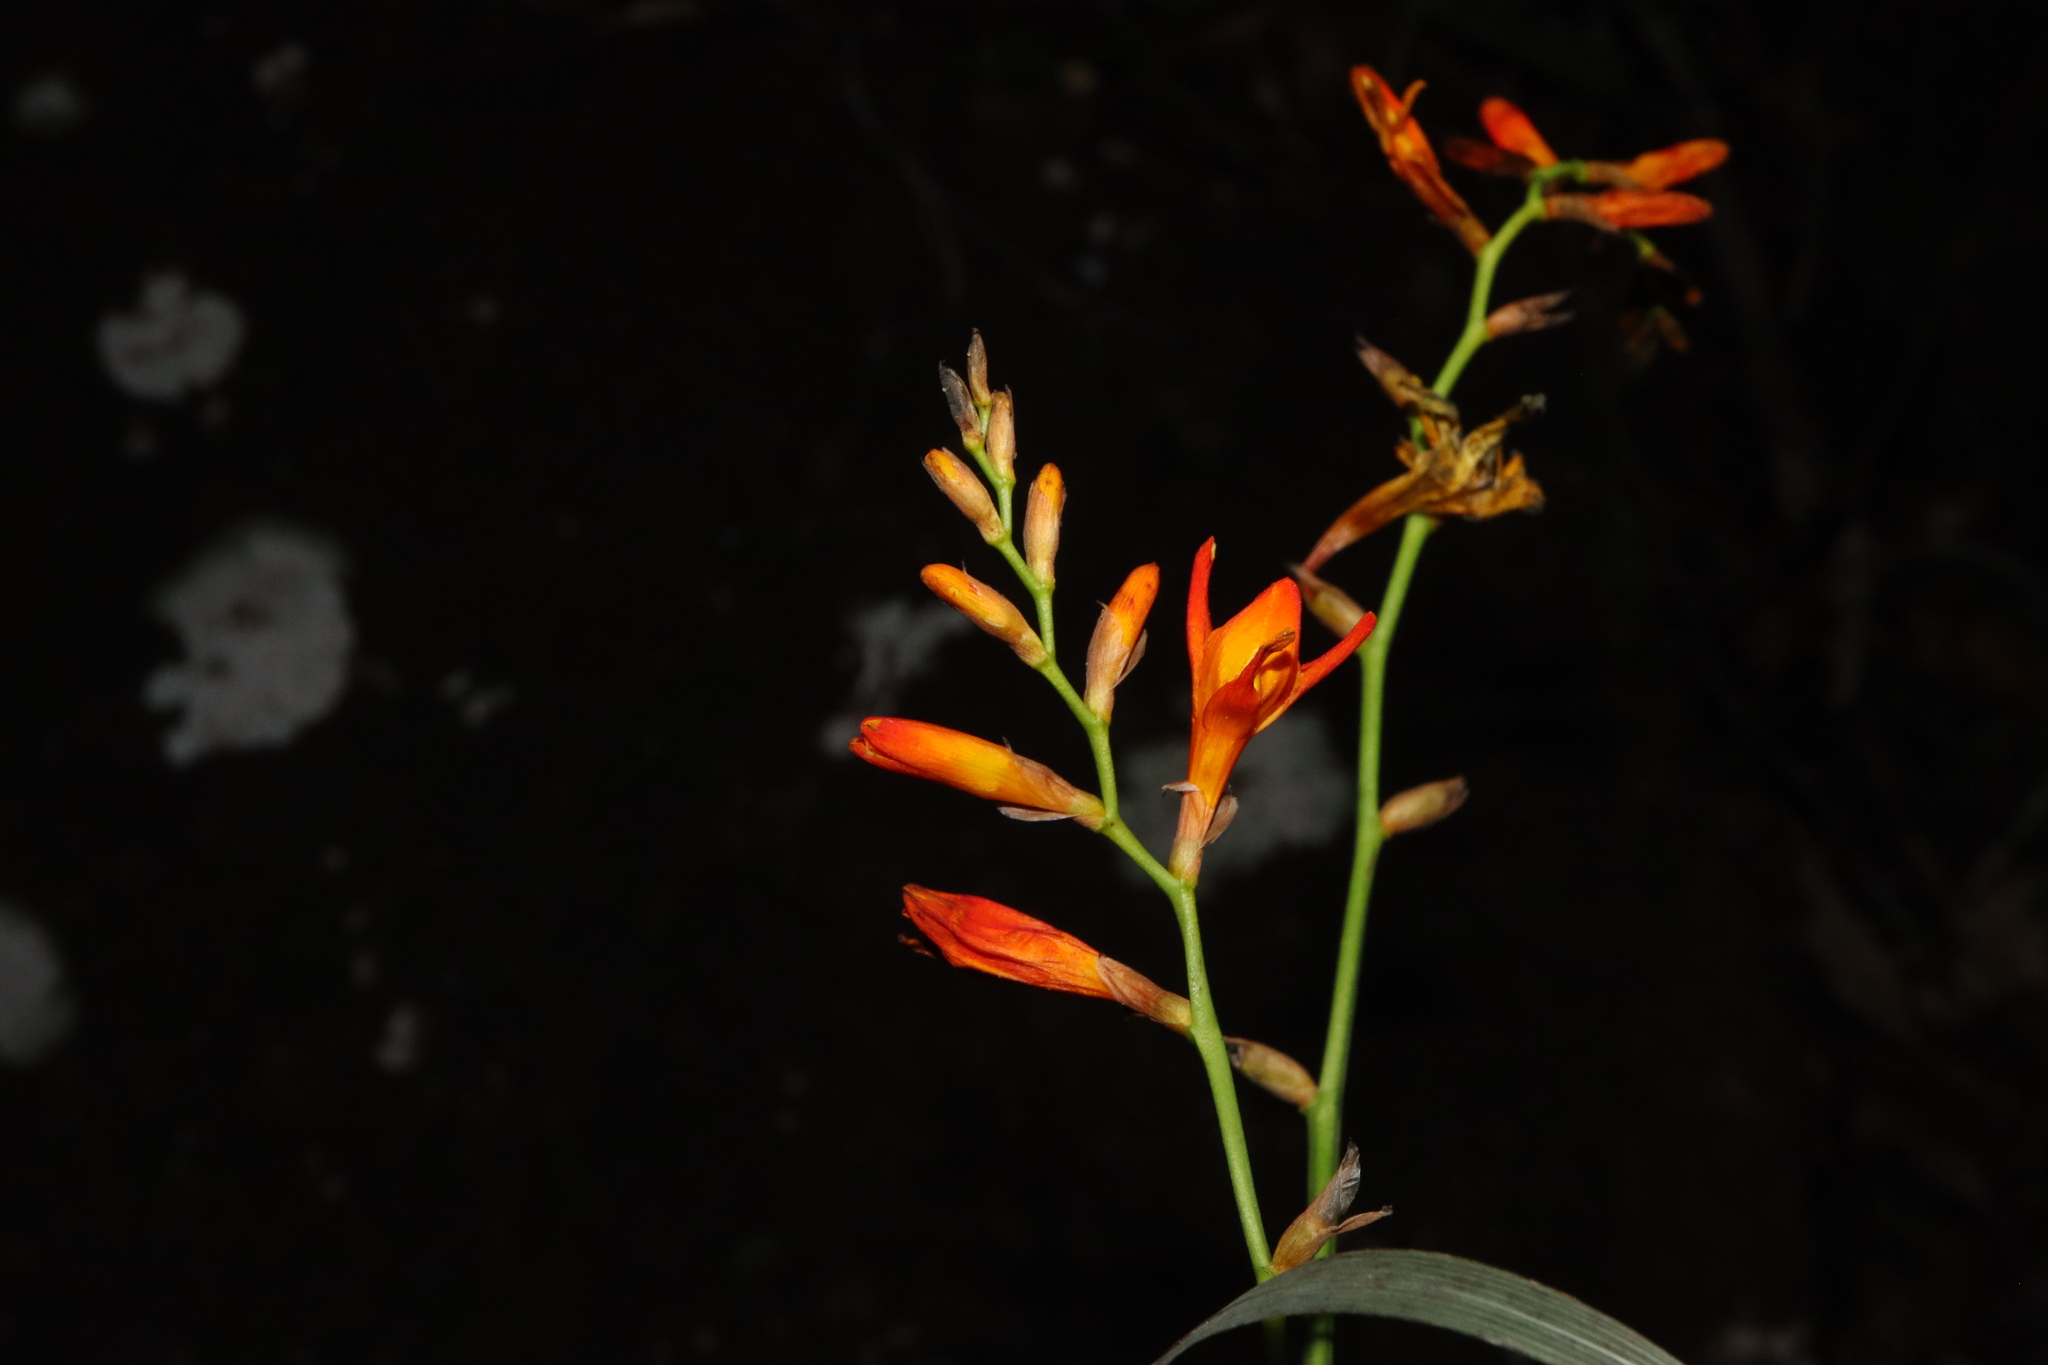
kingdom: Plantae
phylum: Tracheophyta
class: Liliopsida
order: Asparagales
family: Iridaceae
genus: Crocosmia
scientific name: Crocosmia crocosmiiflora
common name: Montbretia
